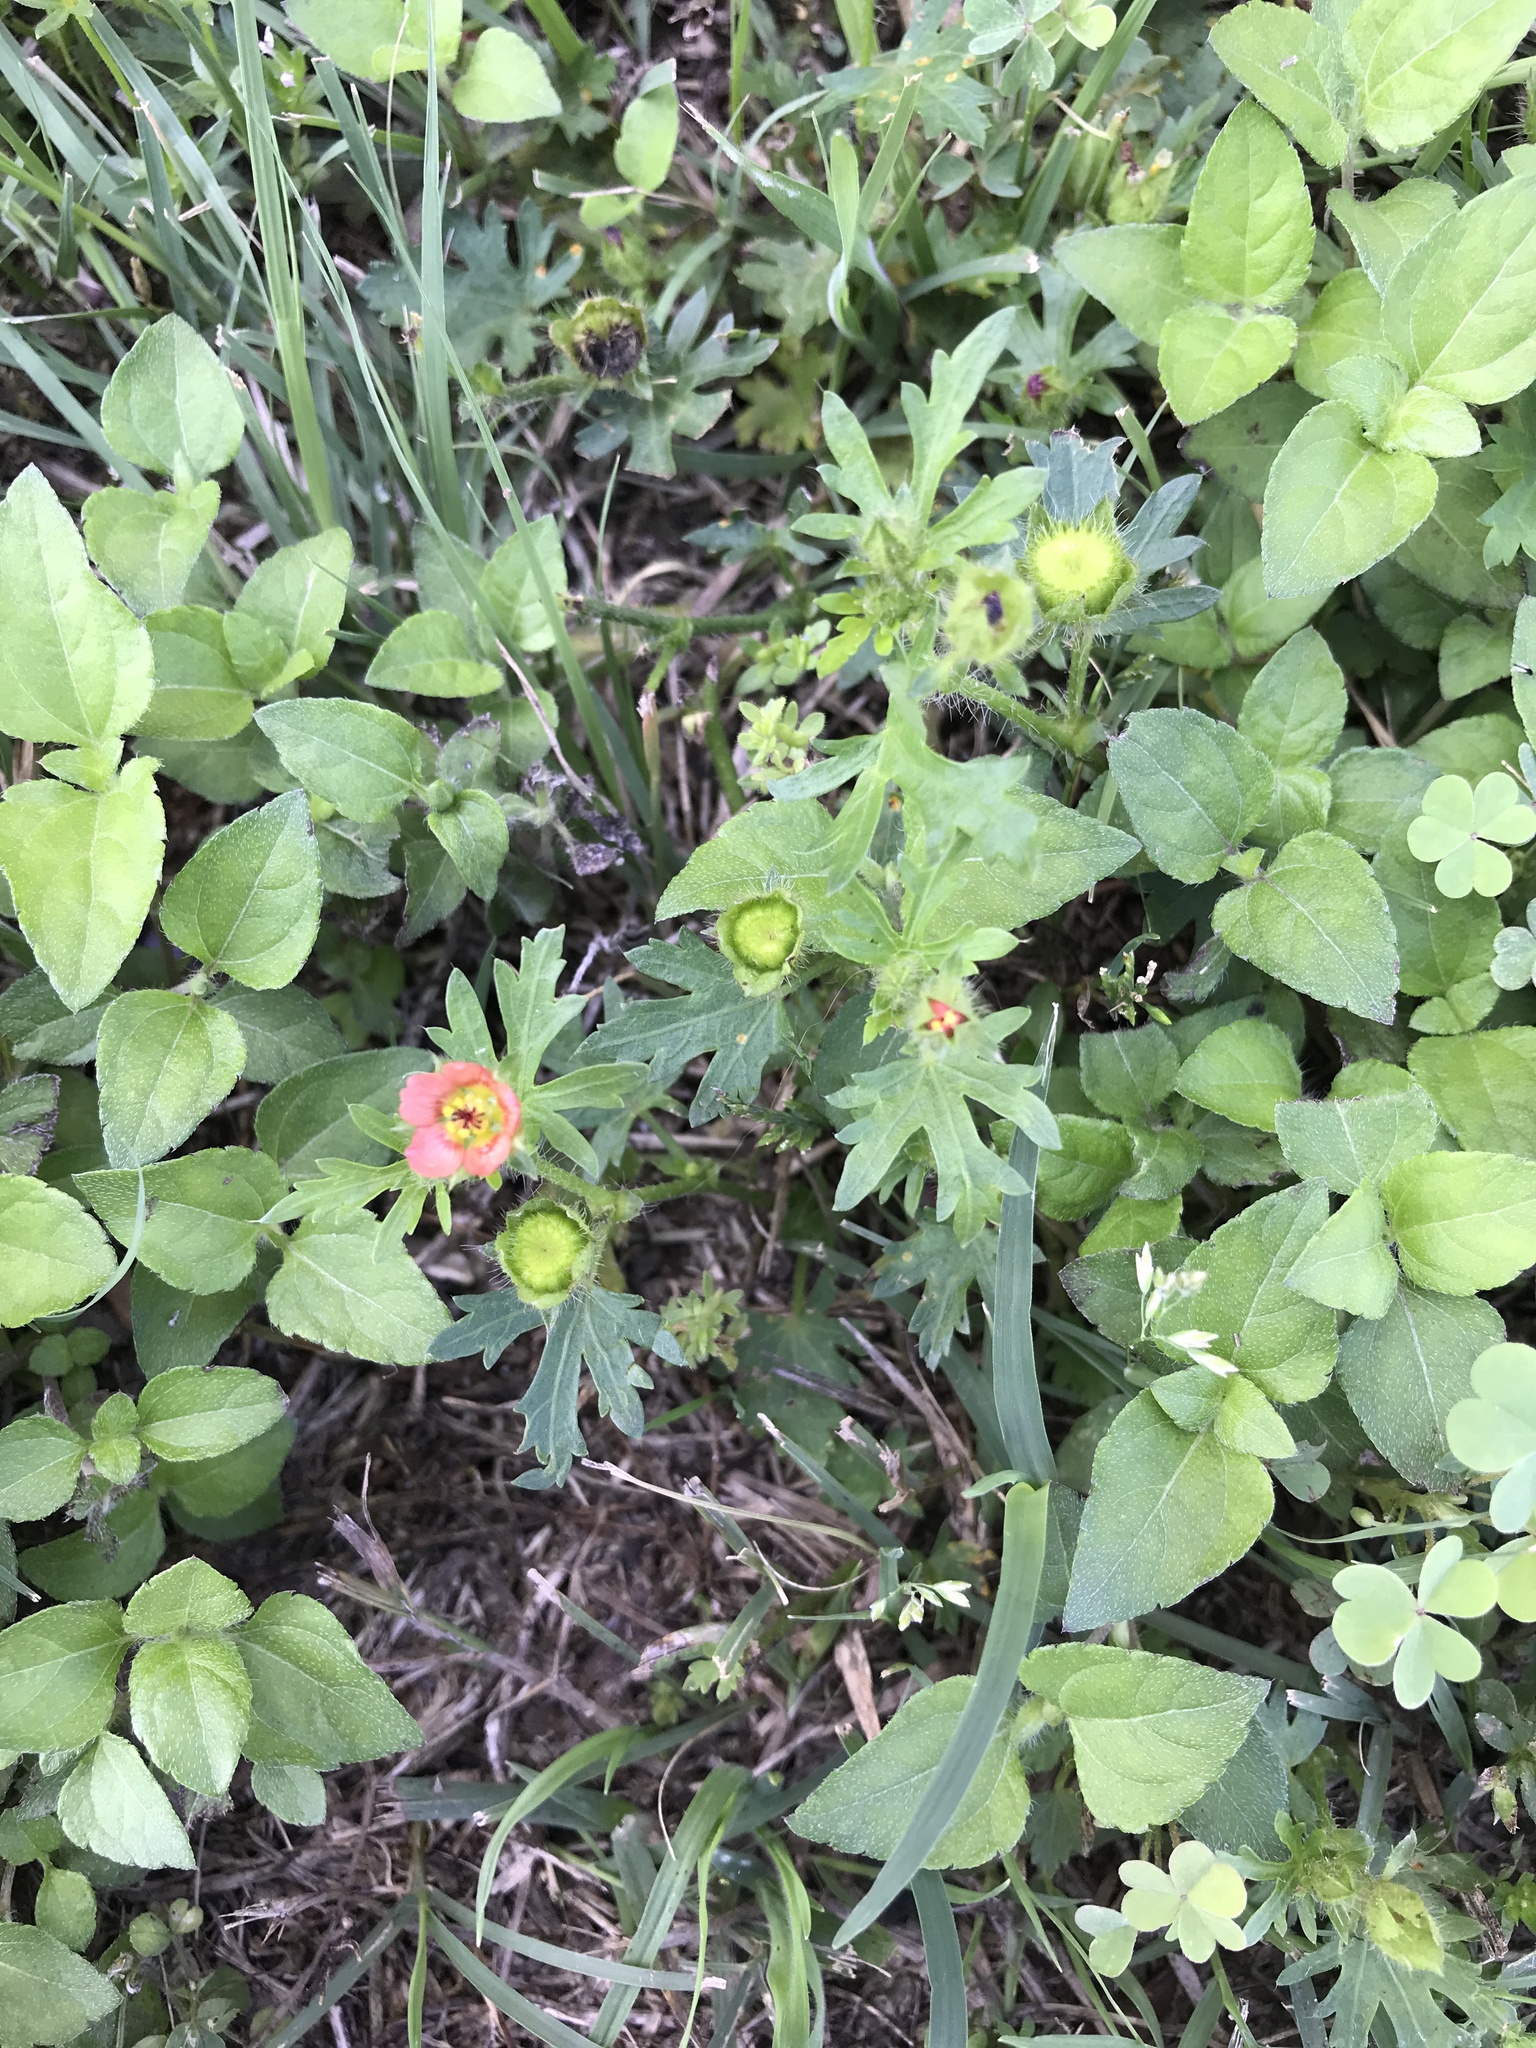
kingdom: Plantae
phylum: Tracheophyta
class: Magnoliopsida
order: Malvales
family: Malvaceae
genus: Modiola
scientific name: Modiola caroliniana
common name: Carolina bristlemallow
